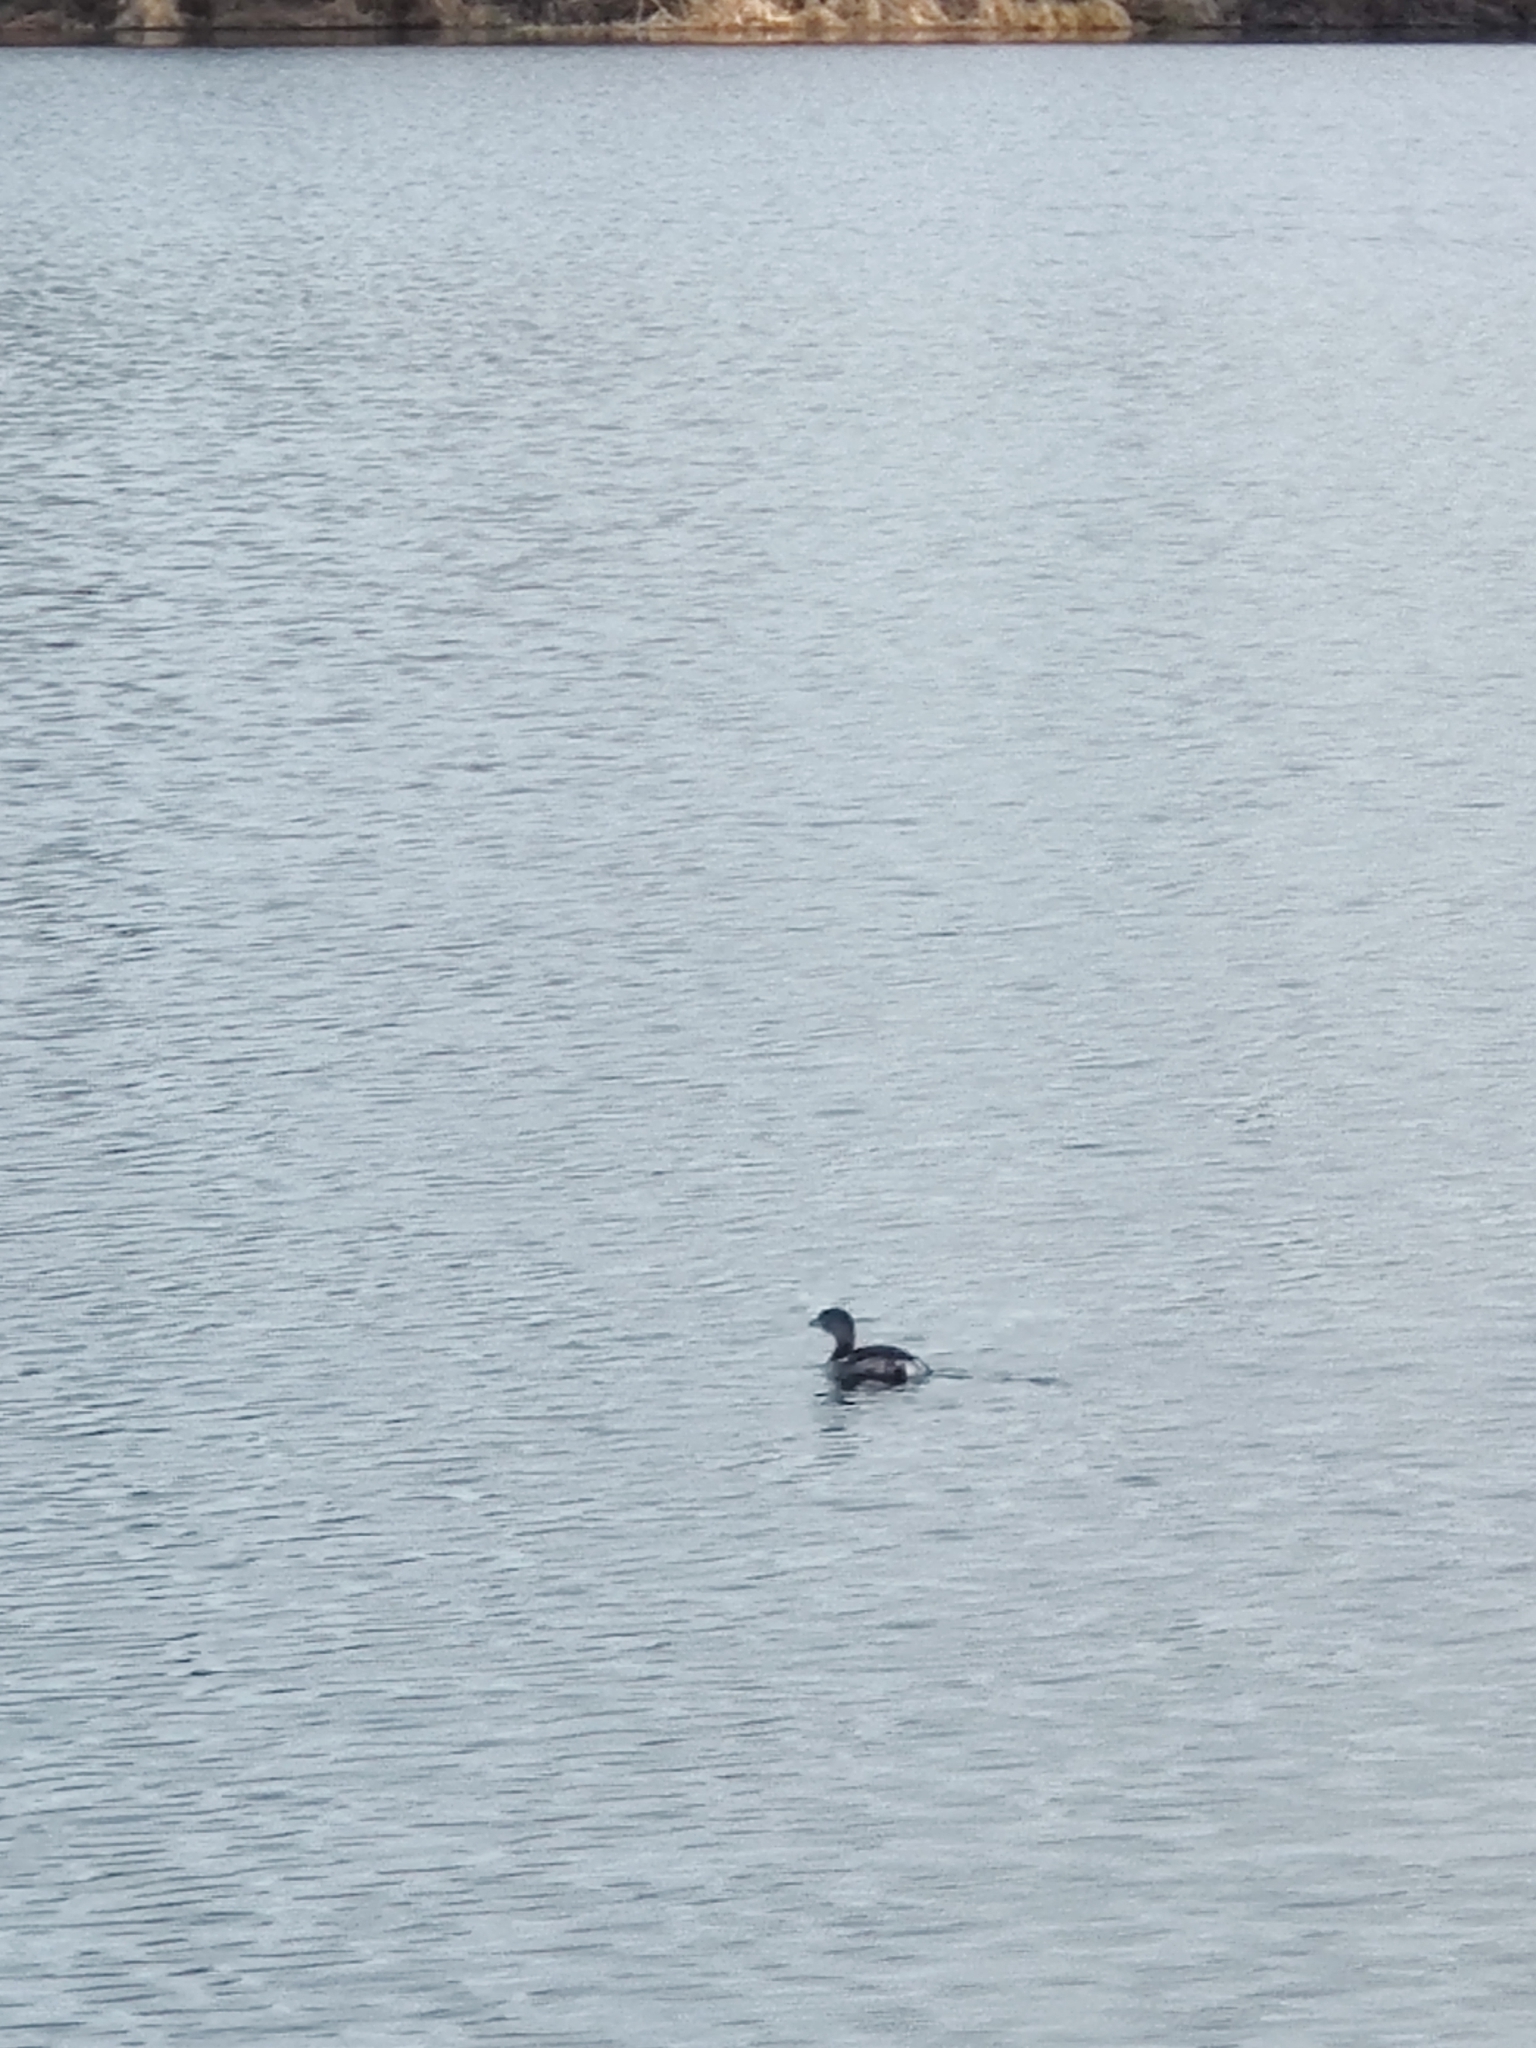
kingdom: Animalia
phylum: Chordata
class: Aves
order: Podicipediformes
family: Podicipedidae
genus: Podilymbus
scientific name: Podilymbus podiceps
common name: Pied-billed grebe
